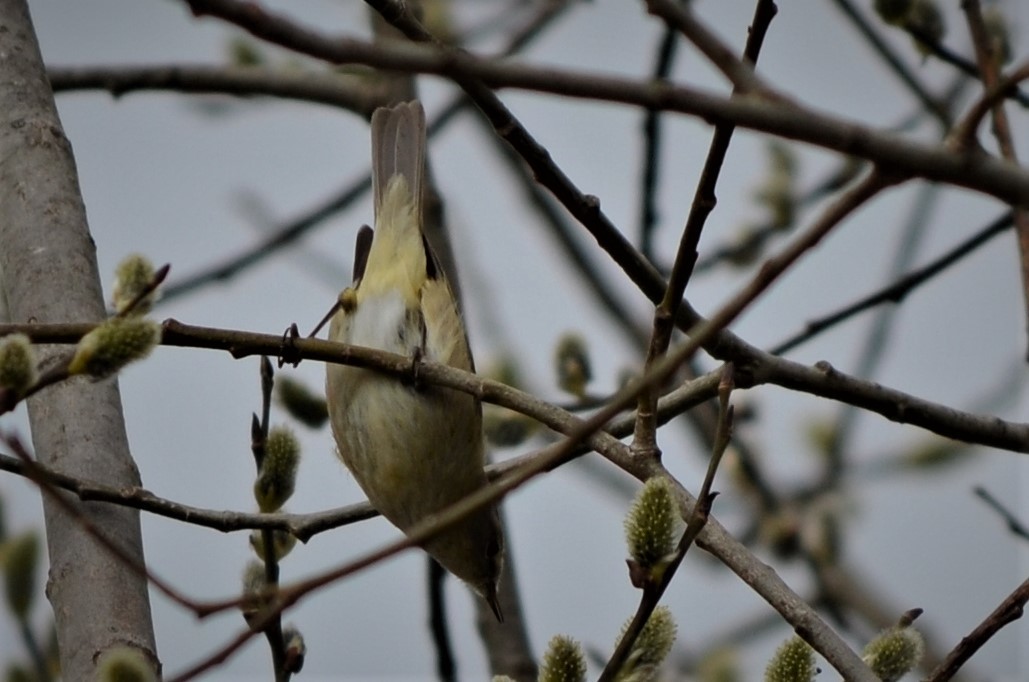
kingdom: Animalia
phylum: Chordata
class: Aves
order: Passeriformes
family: Phylloscopidae
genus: Phylloscopus
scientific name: Phylloscopus collybita
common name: Common chiffchaff
